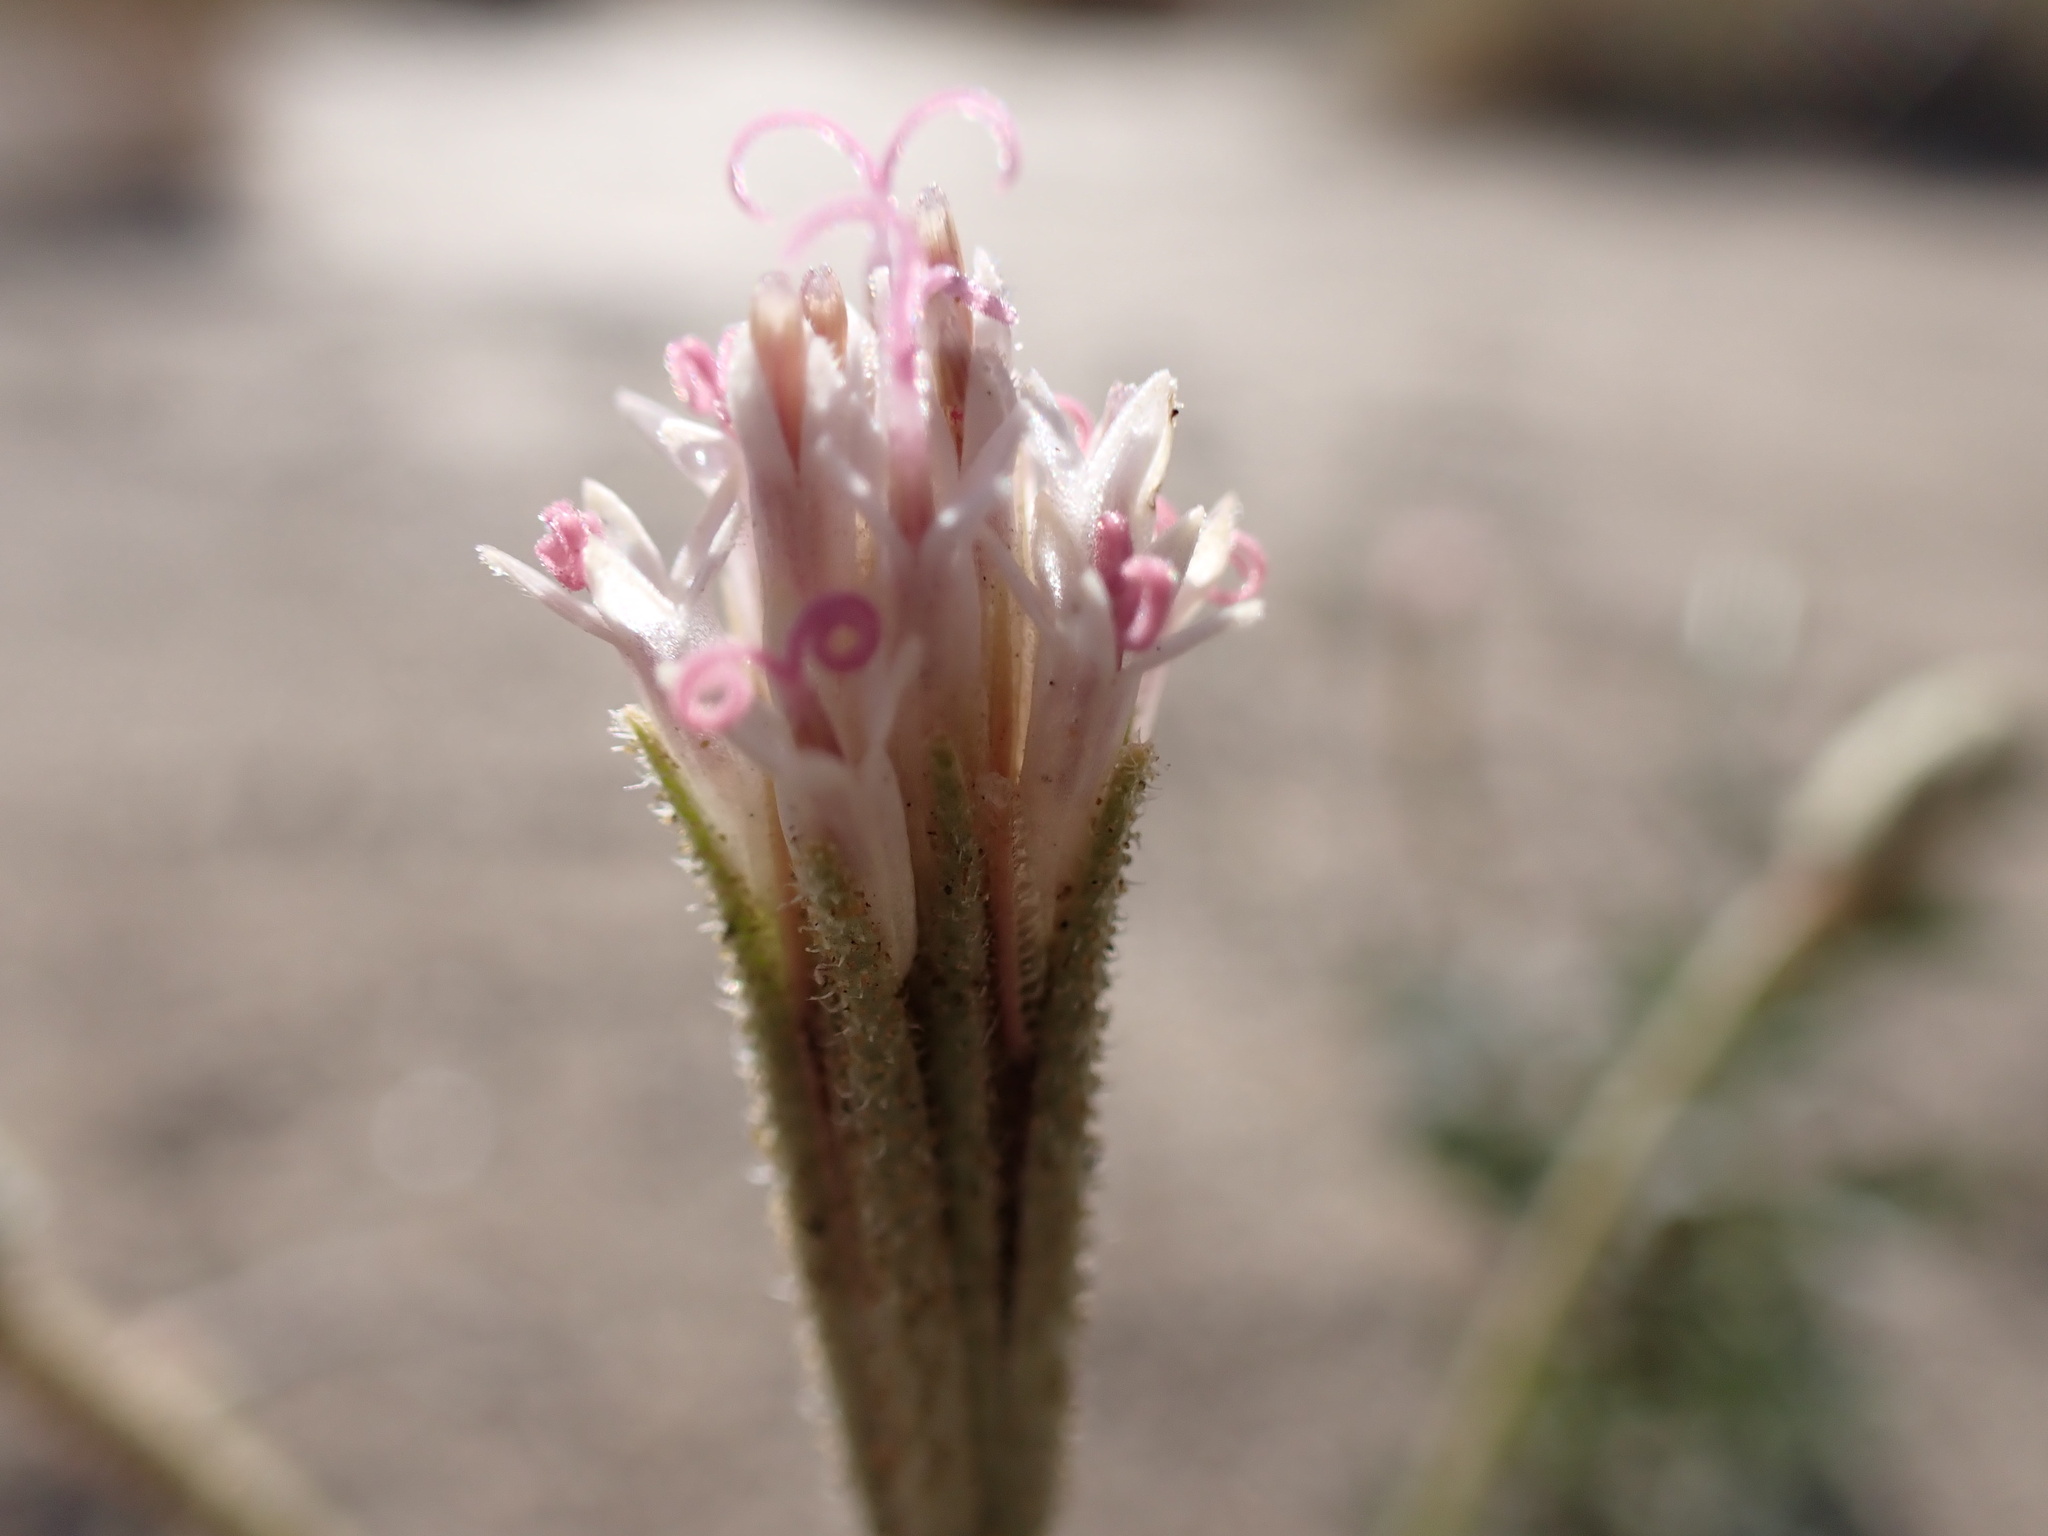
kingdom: Plantae
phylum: Tracheophyta
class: Magnoliopsida
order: Asterales
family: Asteraceae
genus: Palafoxia
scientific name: Palafoxia arida
